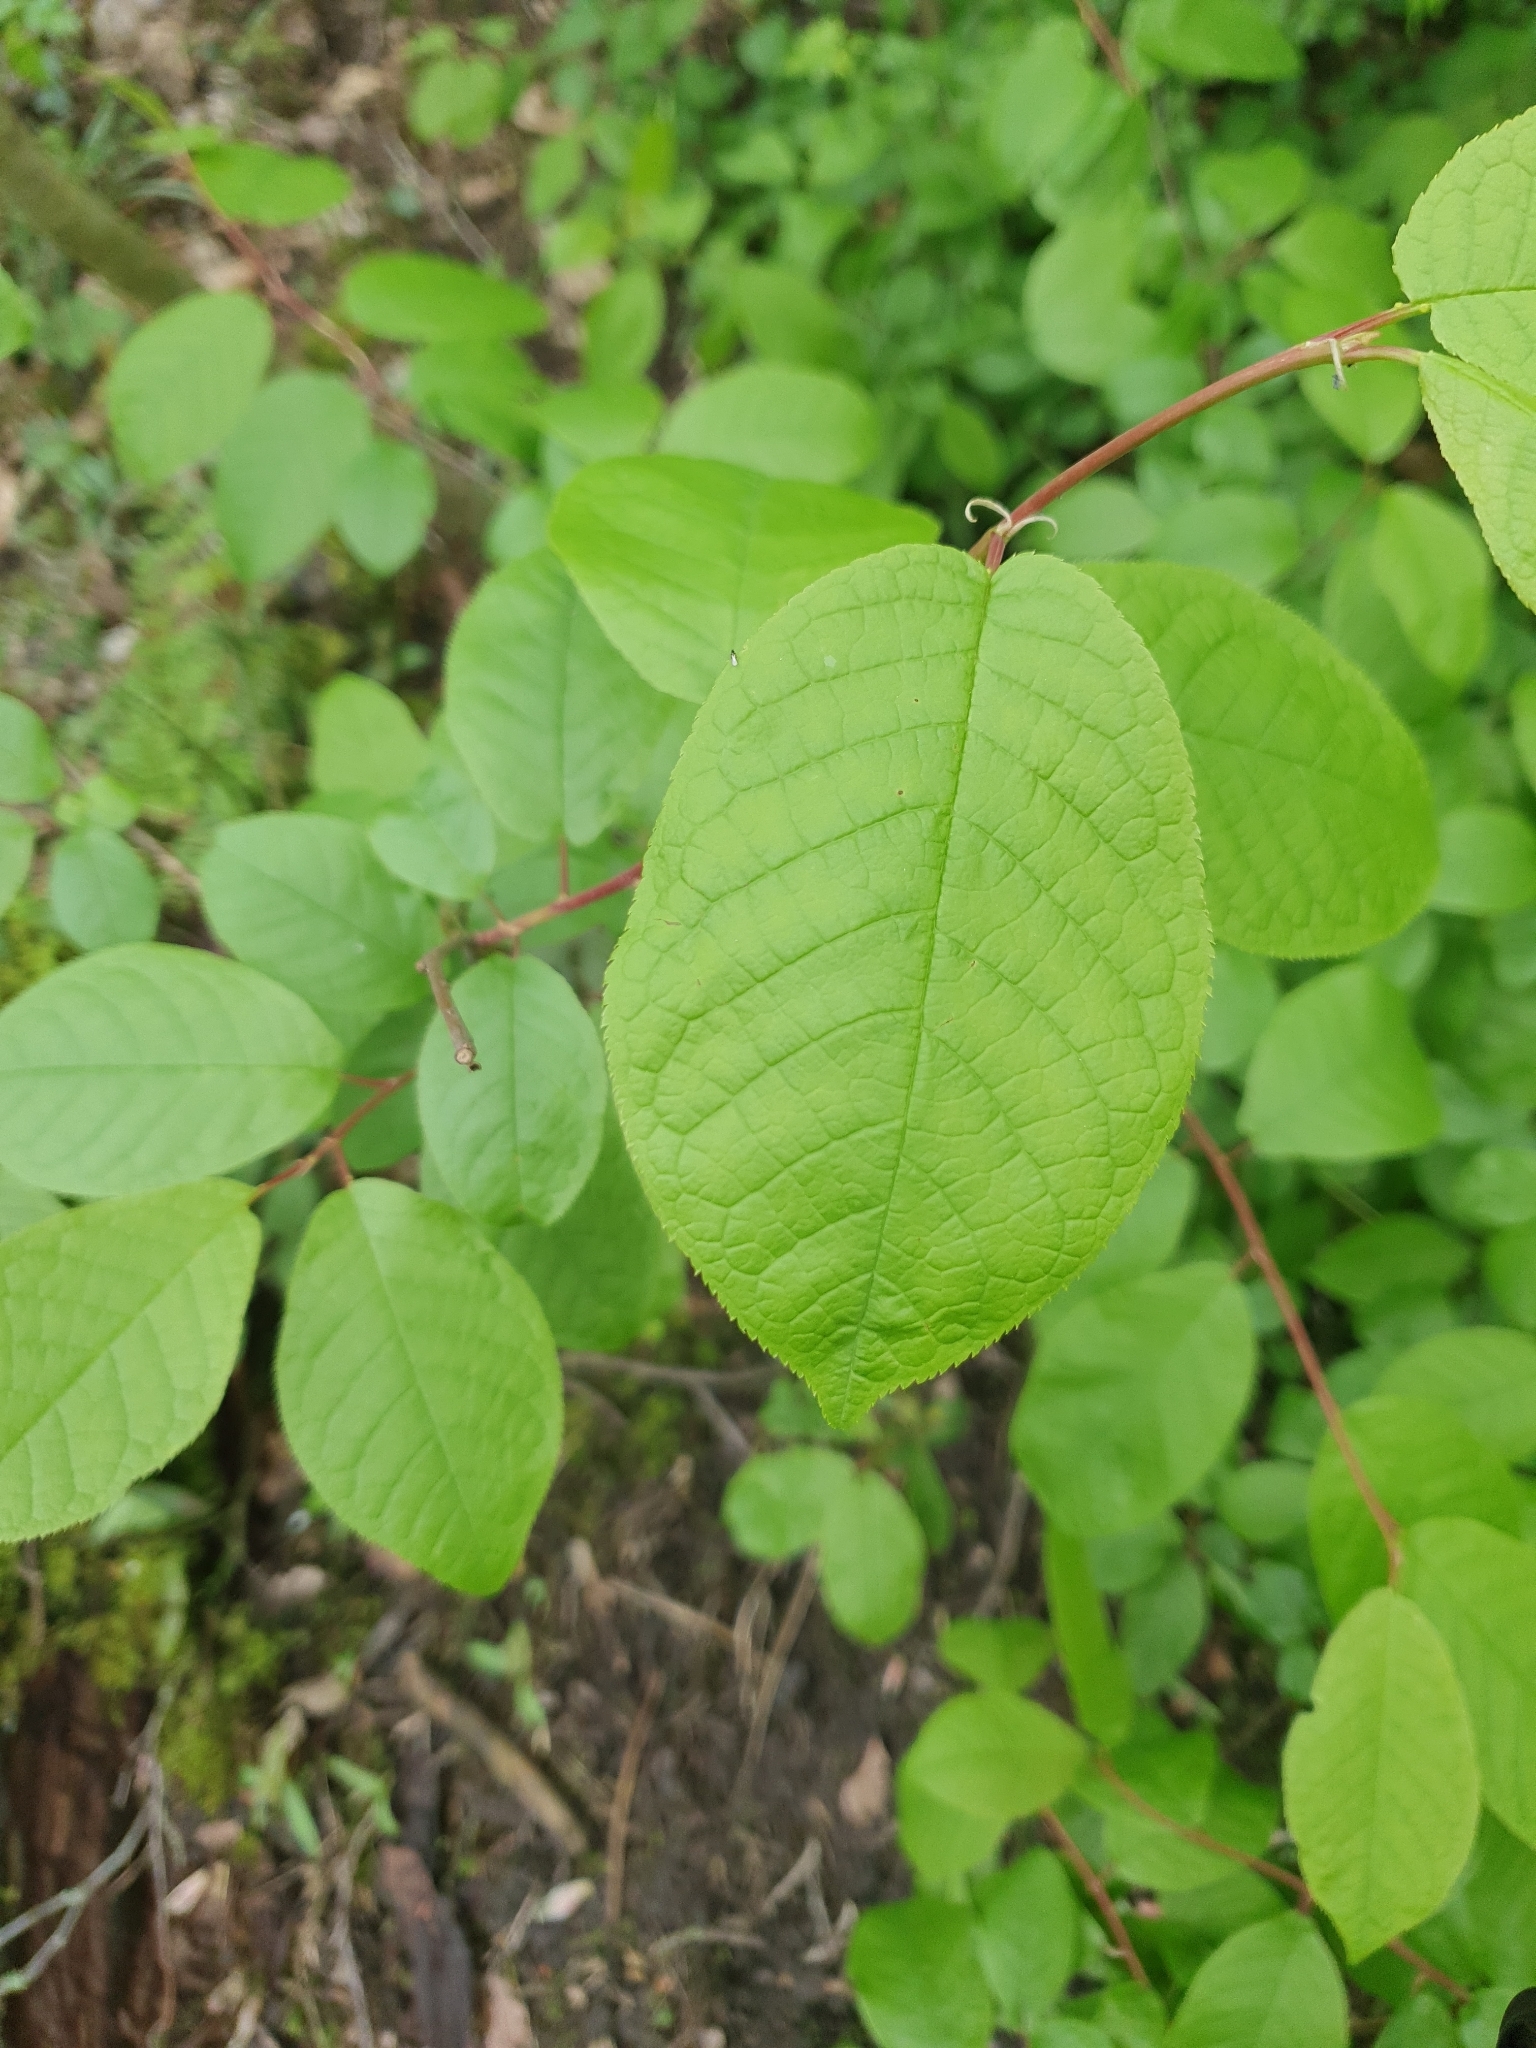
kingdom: Plantae
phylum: Tracheophyta
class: Magnoliopsida
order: Rosales
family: Rosaceae
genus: Prunus
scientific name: Prunus padus
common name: Bird cherry
